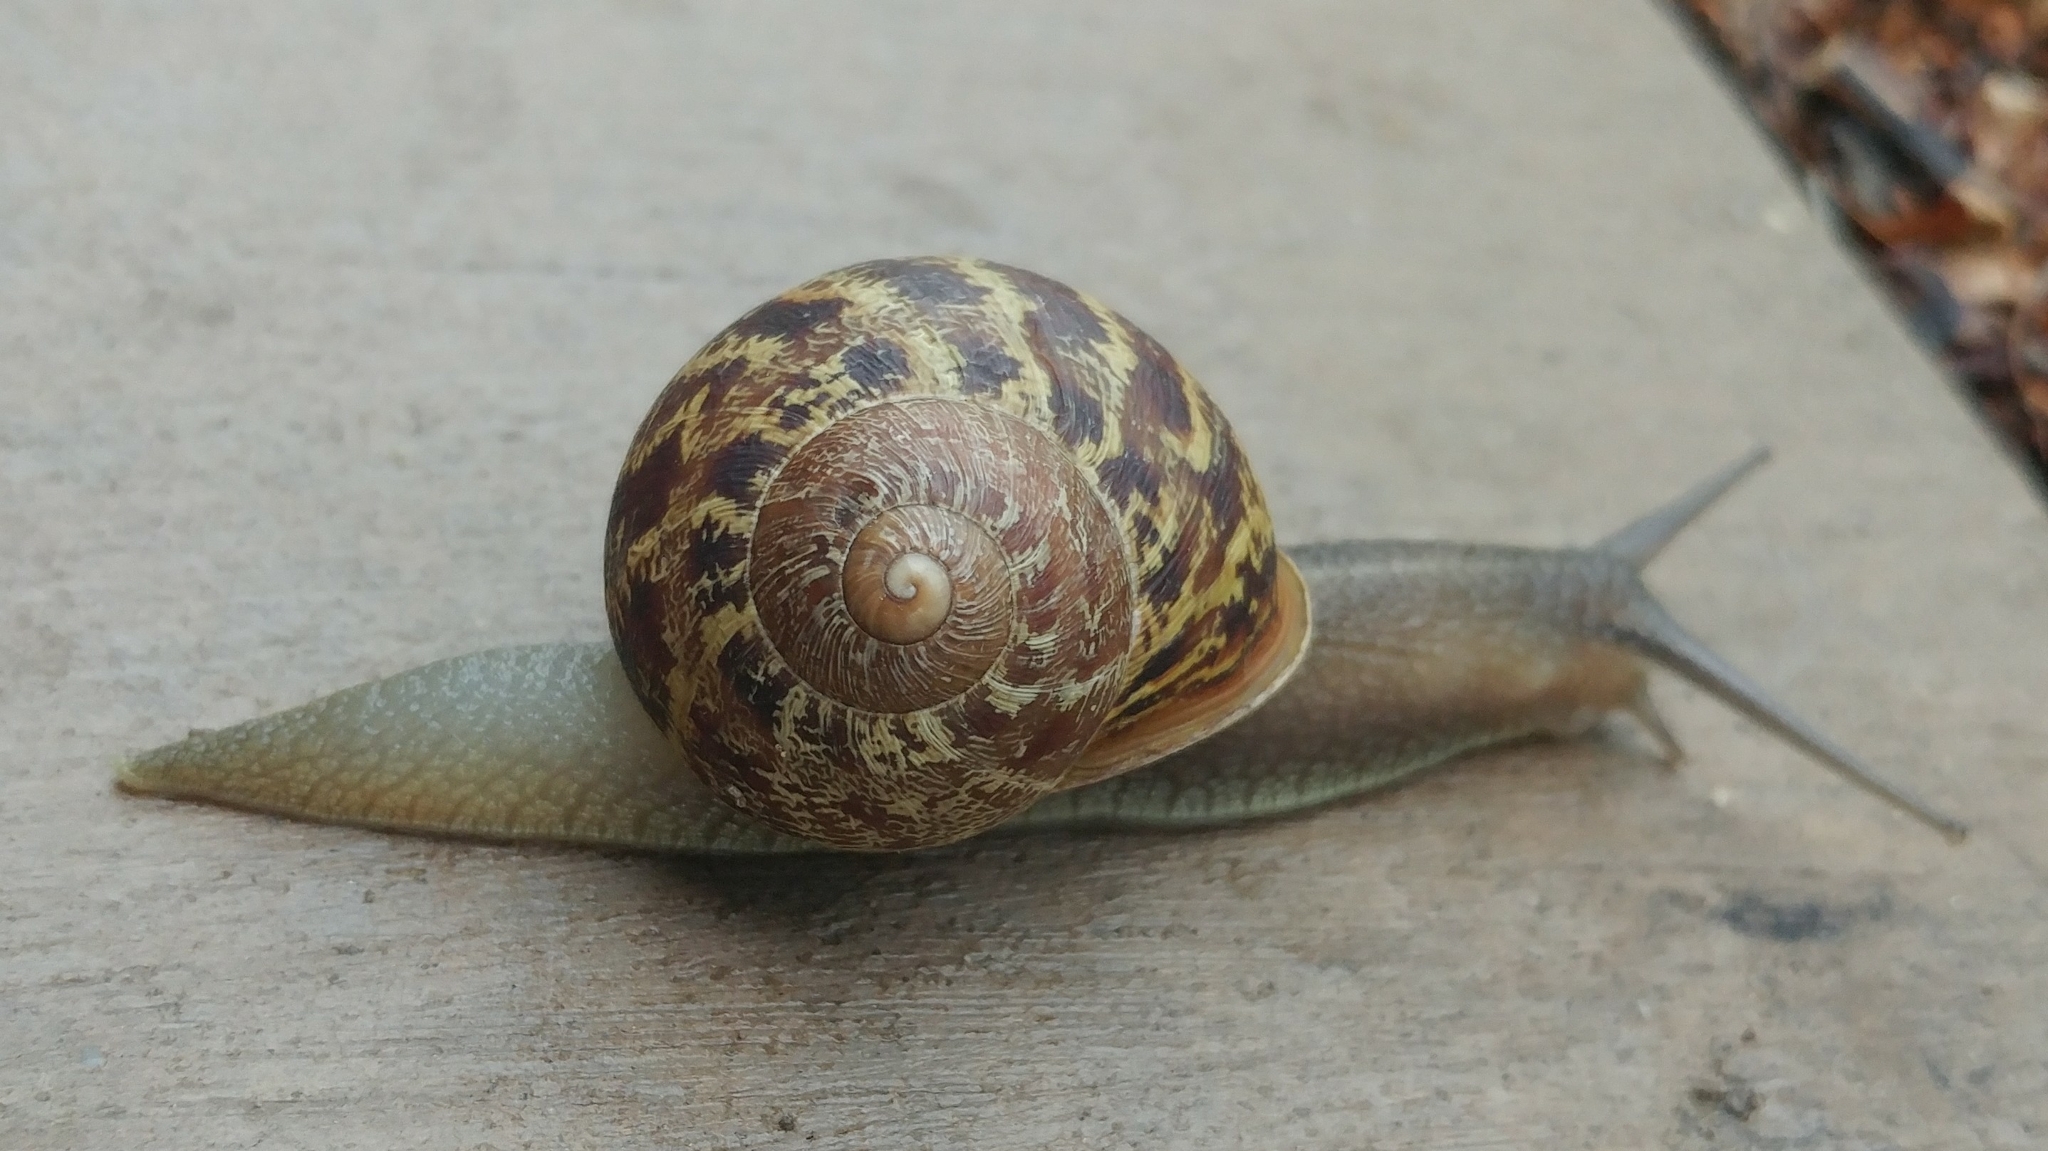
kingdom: Animalia
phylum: Mollusca
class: Gastropoda
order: Stylommatophora
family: Helicidae
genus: Cornu
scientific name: Cornu aspersum
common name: Brown garden snail
